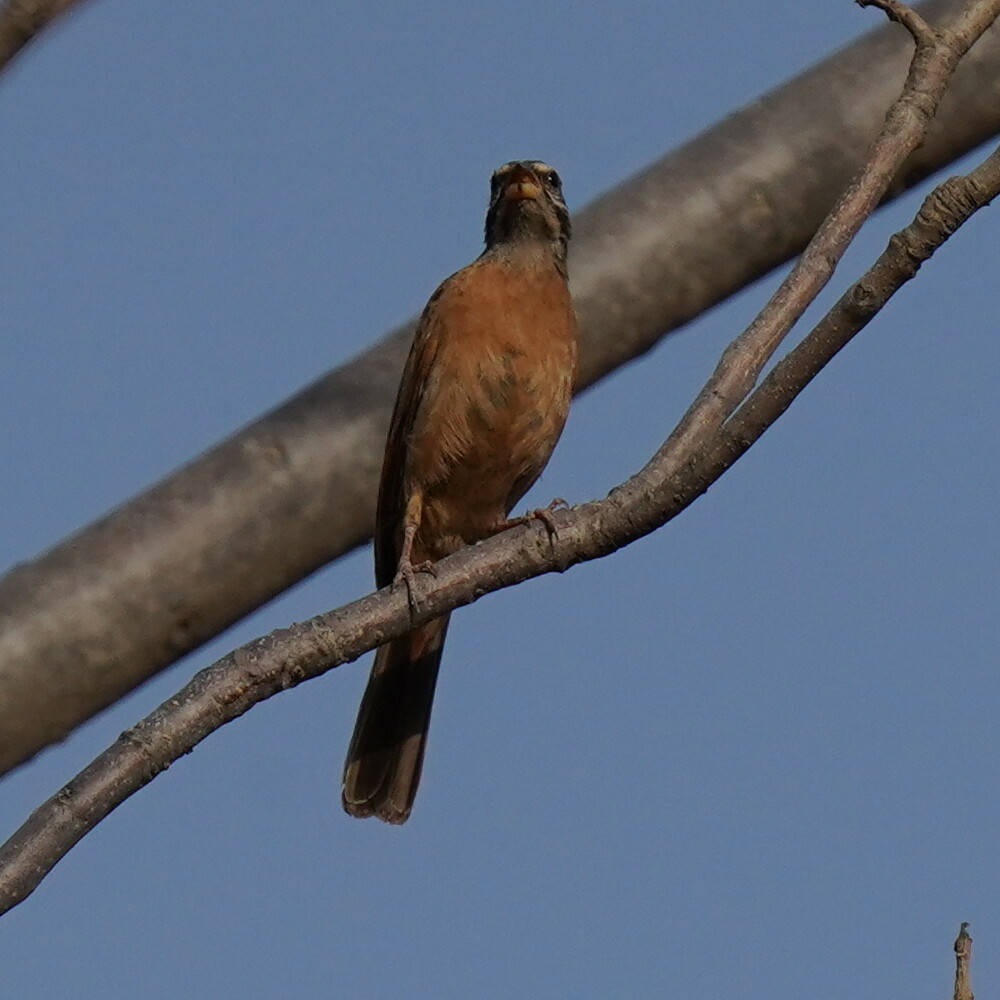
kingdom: Animalia
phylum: Chordata
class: Aves
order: Passeriformes
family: Emberizidae
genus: Emberiza
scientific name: Emberiza goslingi
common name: Gosling's bunting
